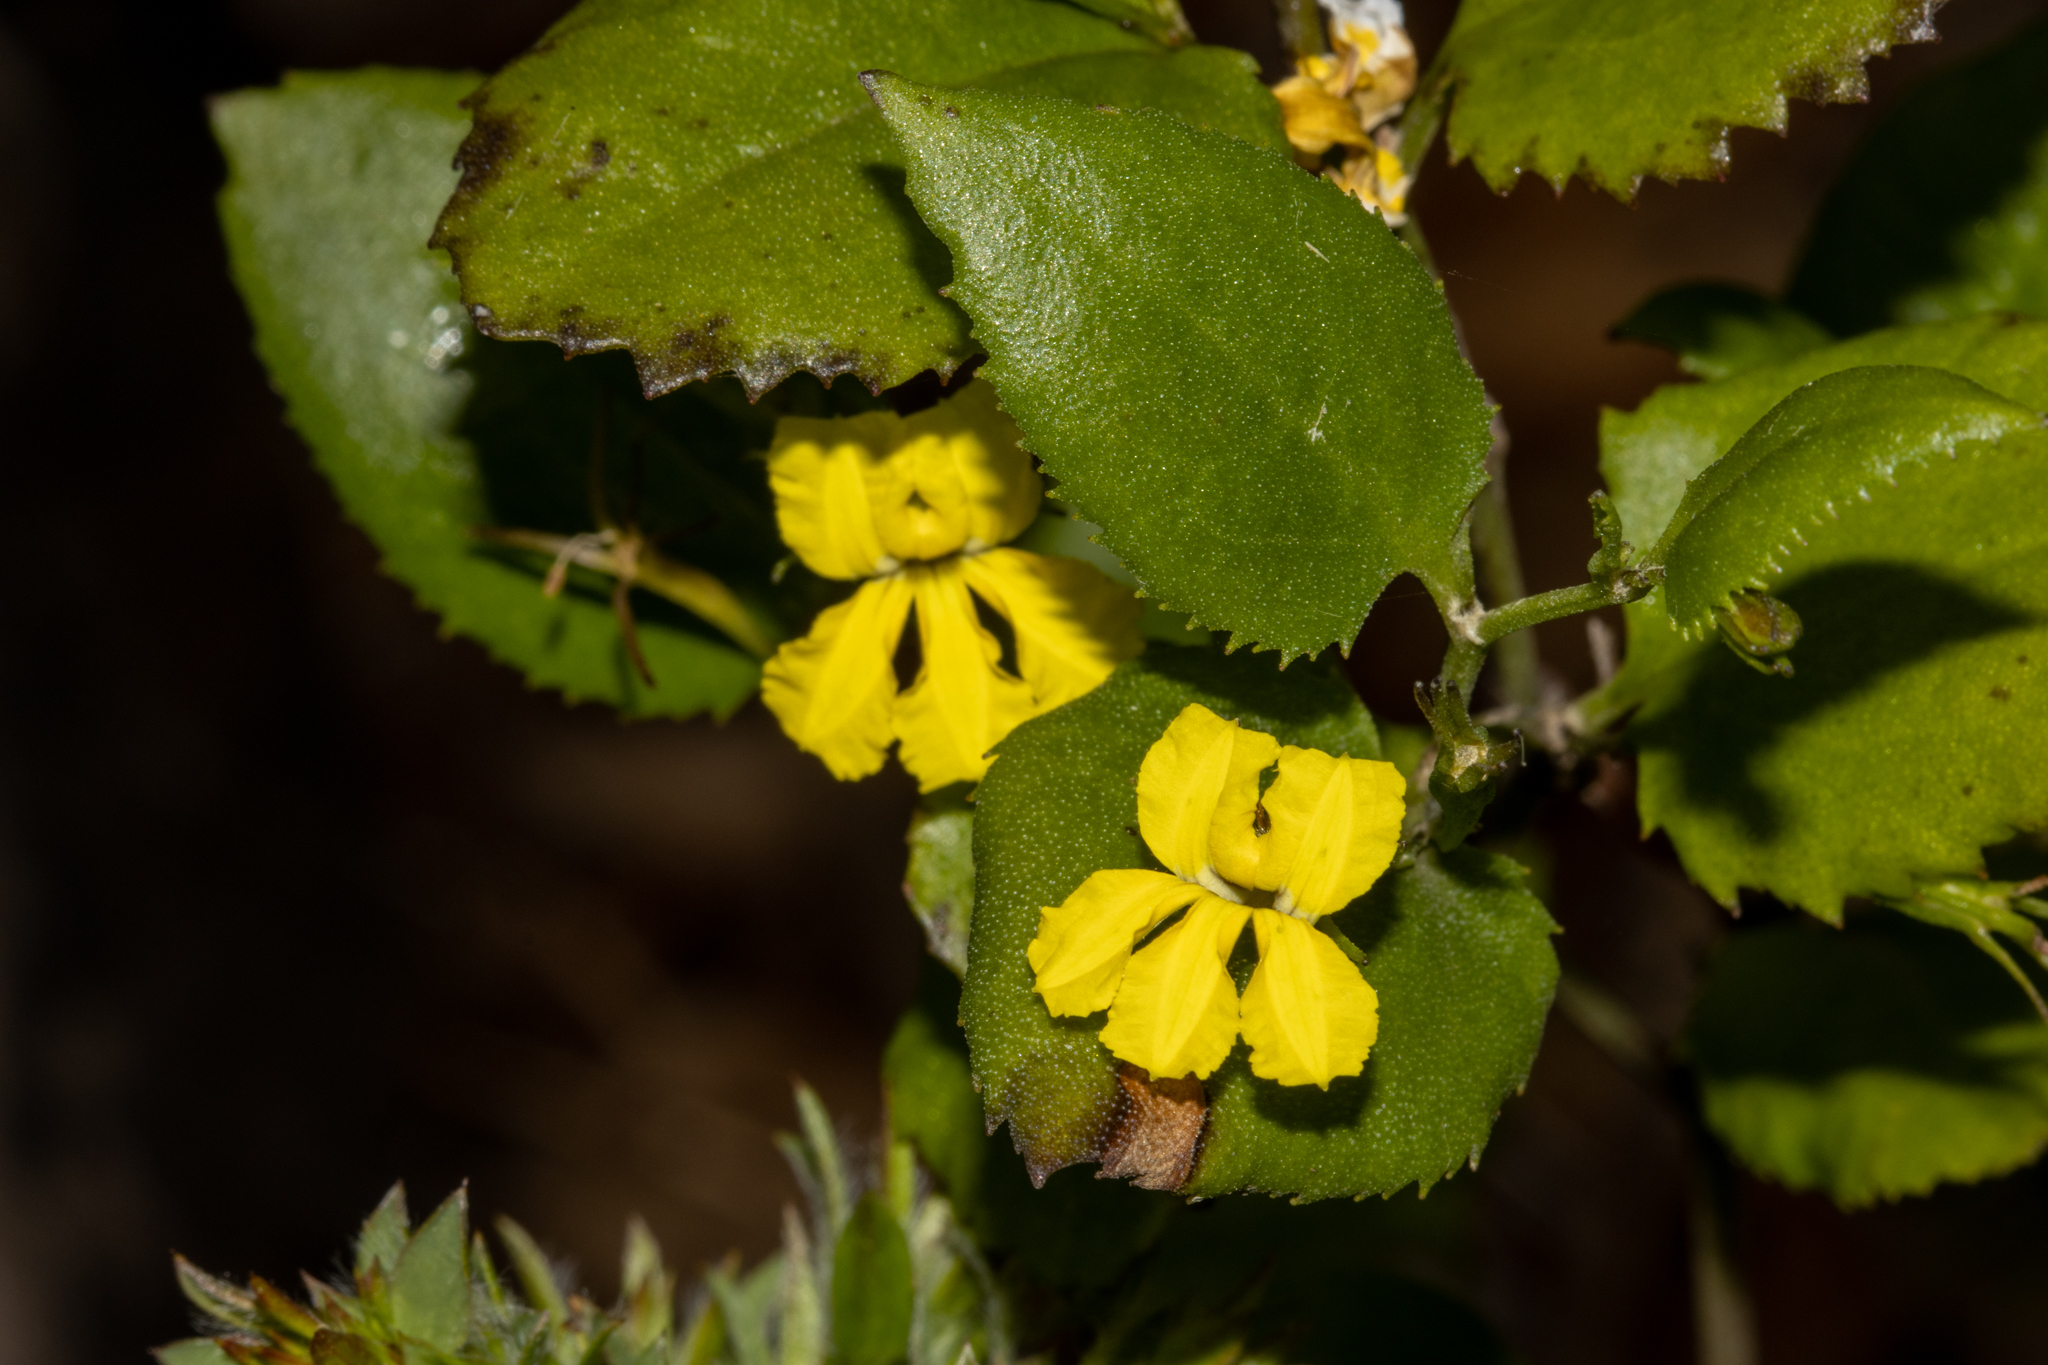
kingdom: Plantae
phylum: Tracheophyta
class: Magnoliopsida
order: Asterales
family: Goodeniaceae
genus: Goodenia
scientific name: Goodenia ovata
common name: Hop goodenia
